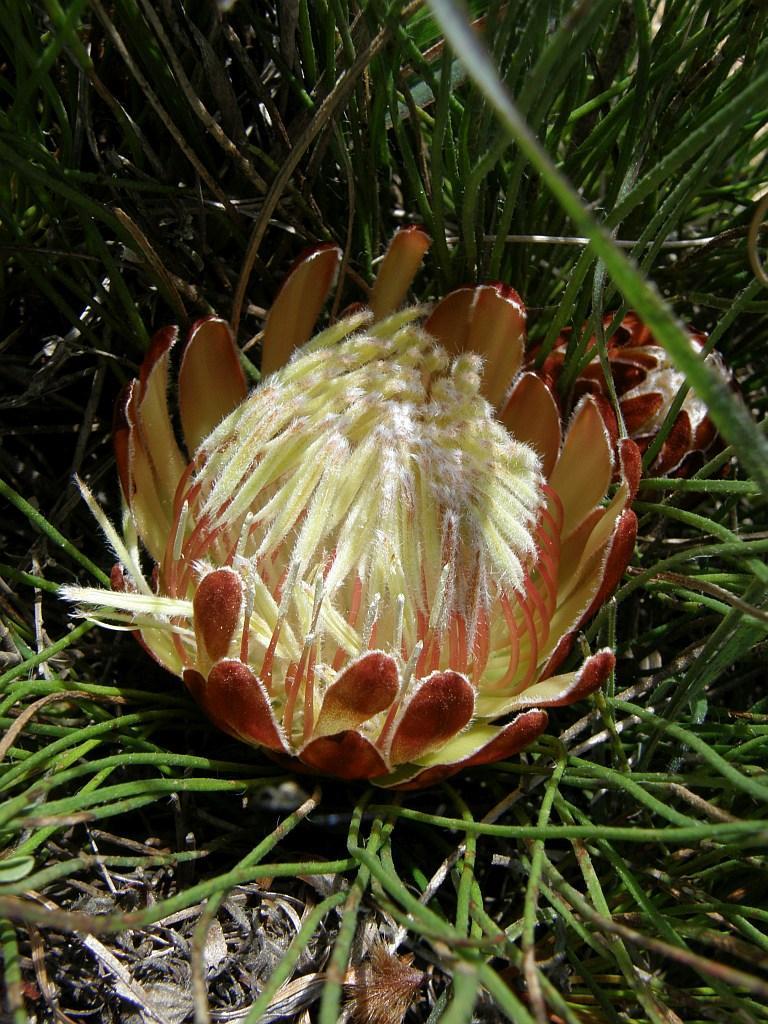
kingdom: Plantae
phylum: Tracheophyta
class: Magnoliopsida
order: Proteales
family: Proteaceae
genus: Protea
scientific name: Protea restionifolia
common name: Reed-leaf sugarbush
